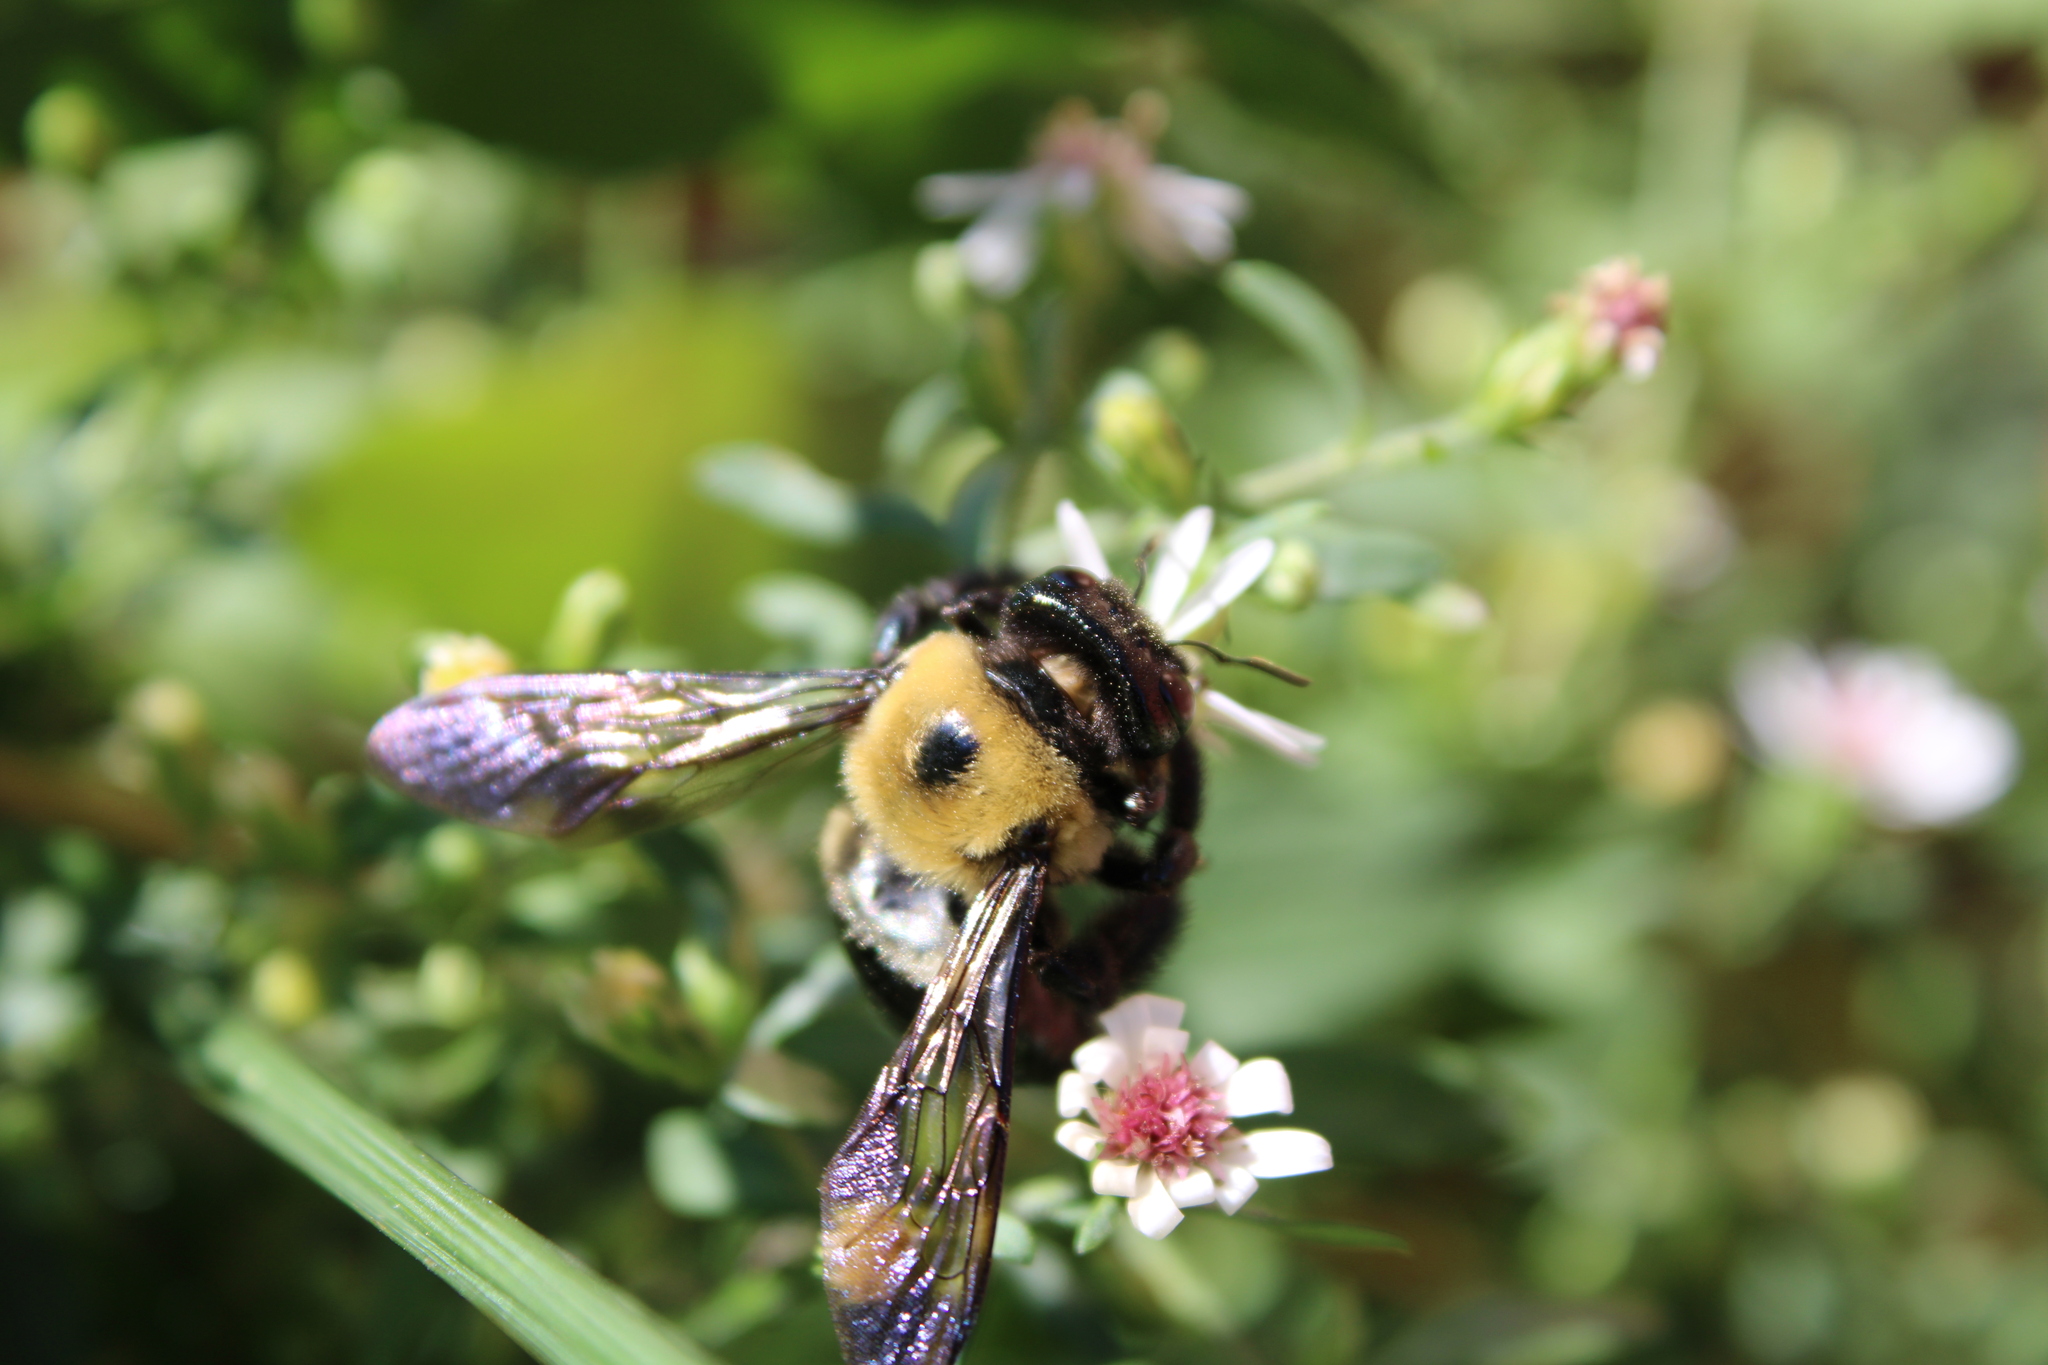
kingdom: Animalia
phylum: Arthropoda
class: Insecta
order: Hymenoptera
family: Apidae
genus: Xylocopa
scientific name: Xylocopa virginica
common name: Carpenter bee
